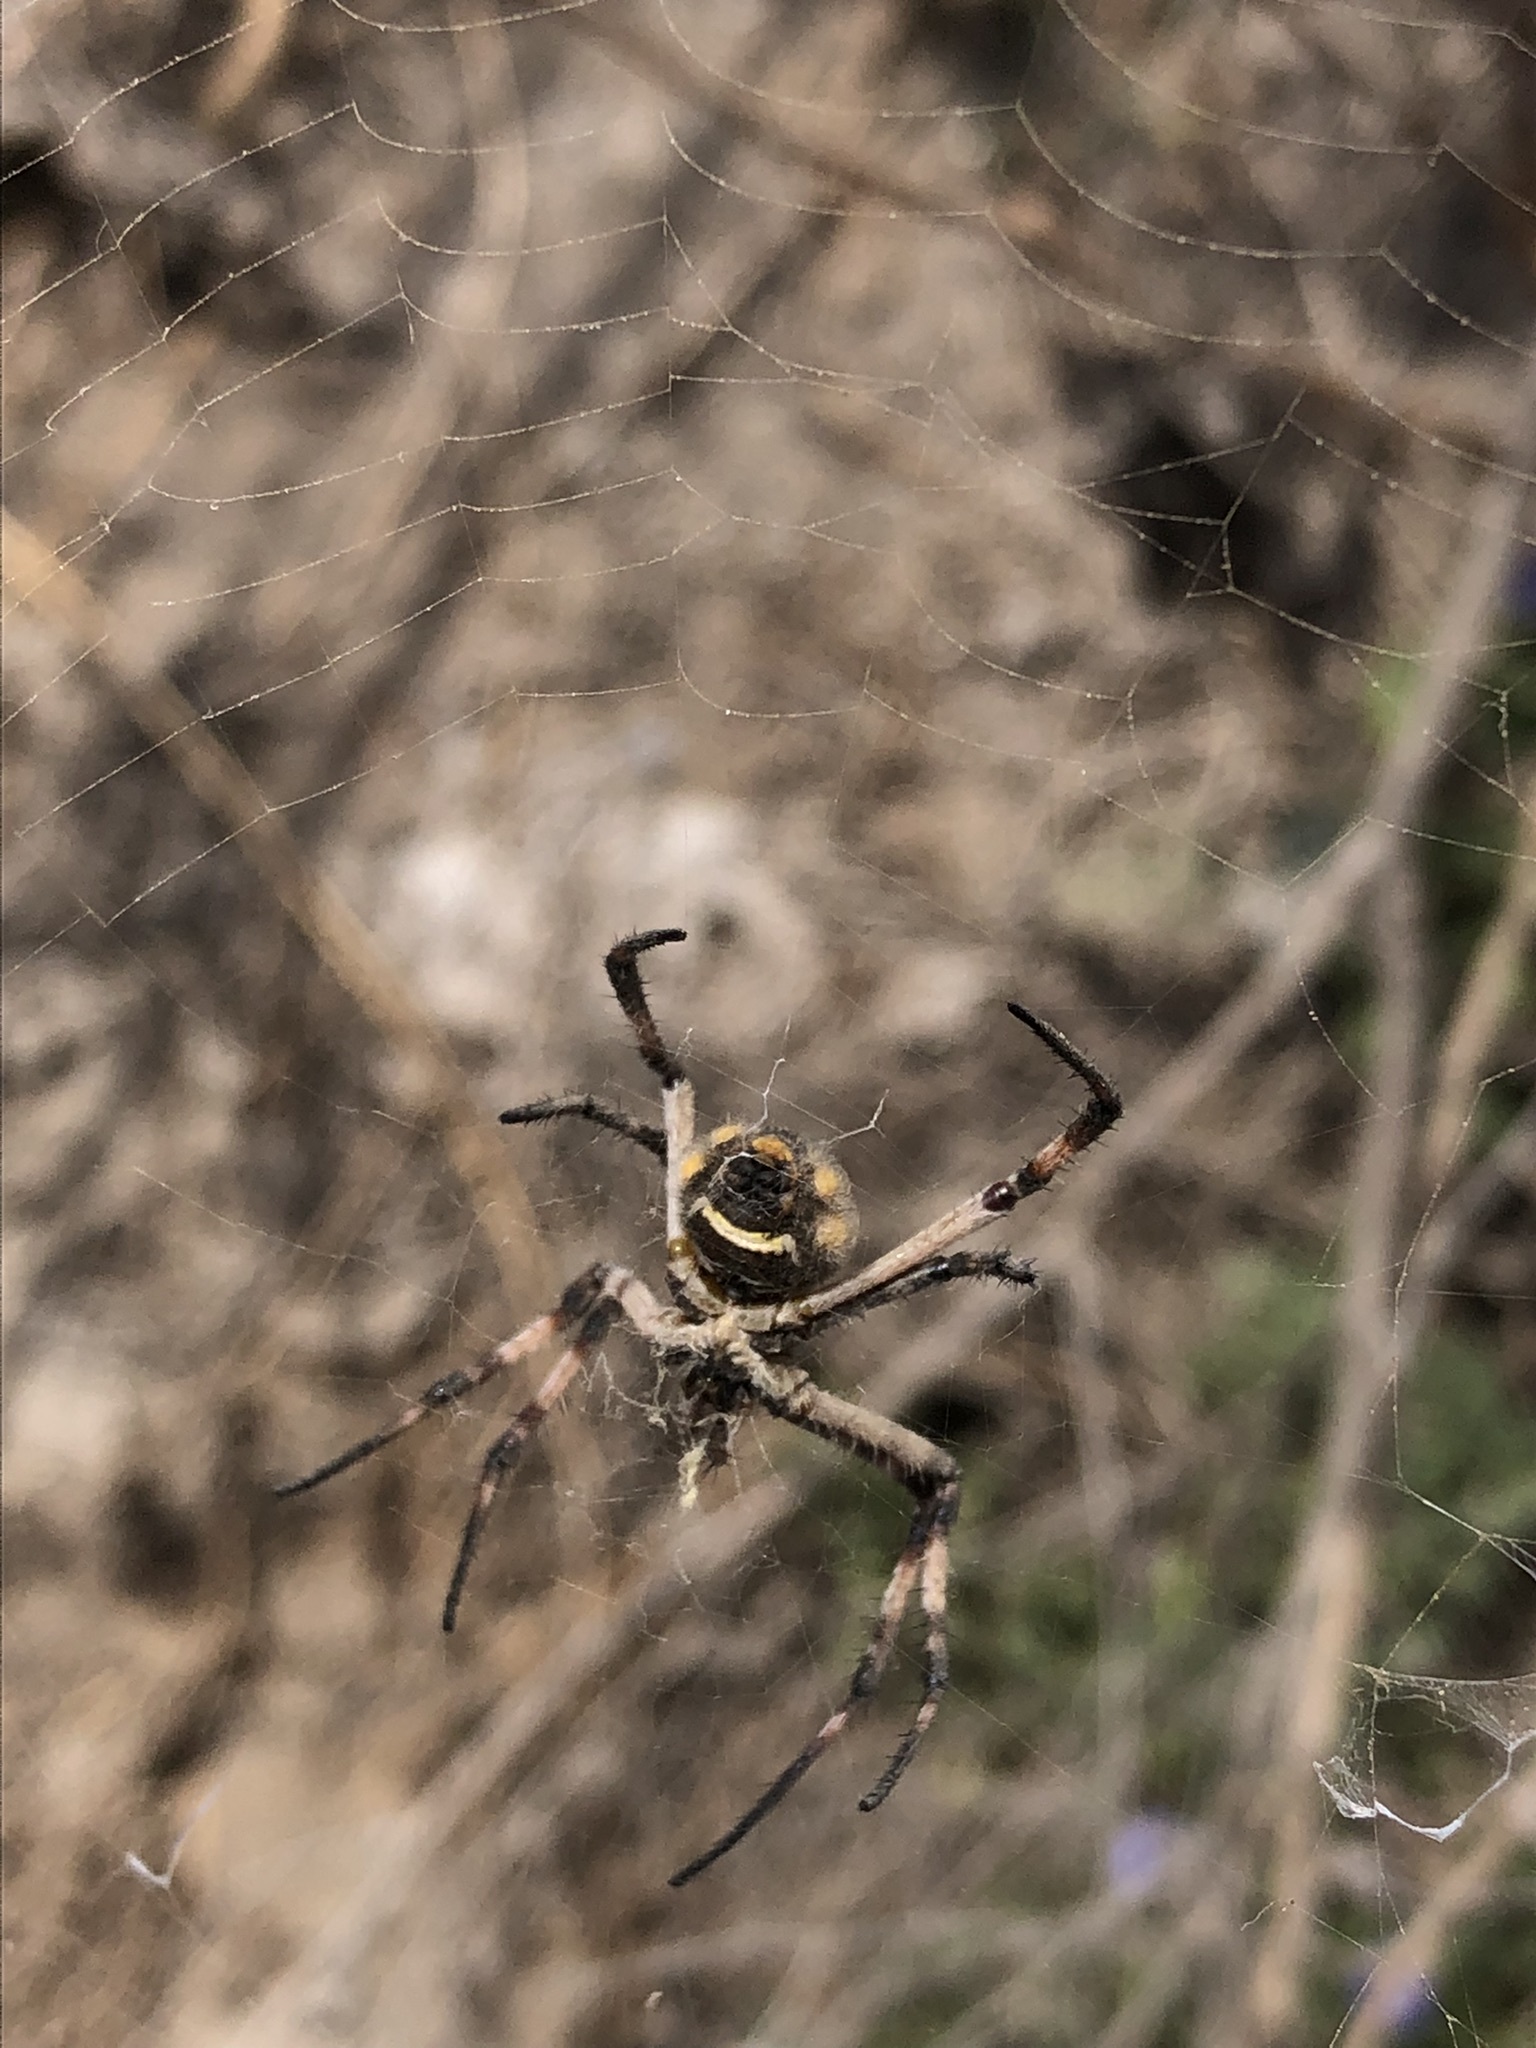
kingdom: Animalia
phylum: Arthropoda
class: Arachnida
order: Araneae
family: Araneidae
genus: Argiope
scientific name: Argiope argentata
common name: Orb weavers
